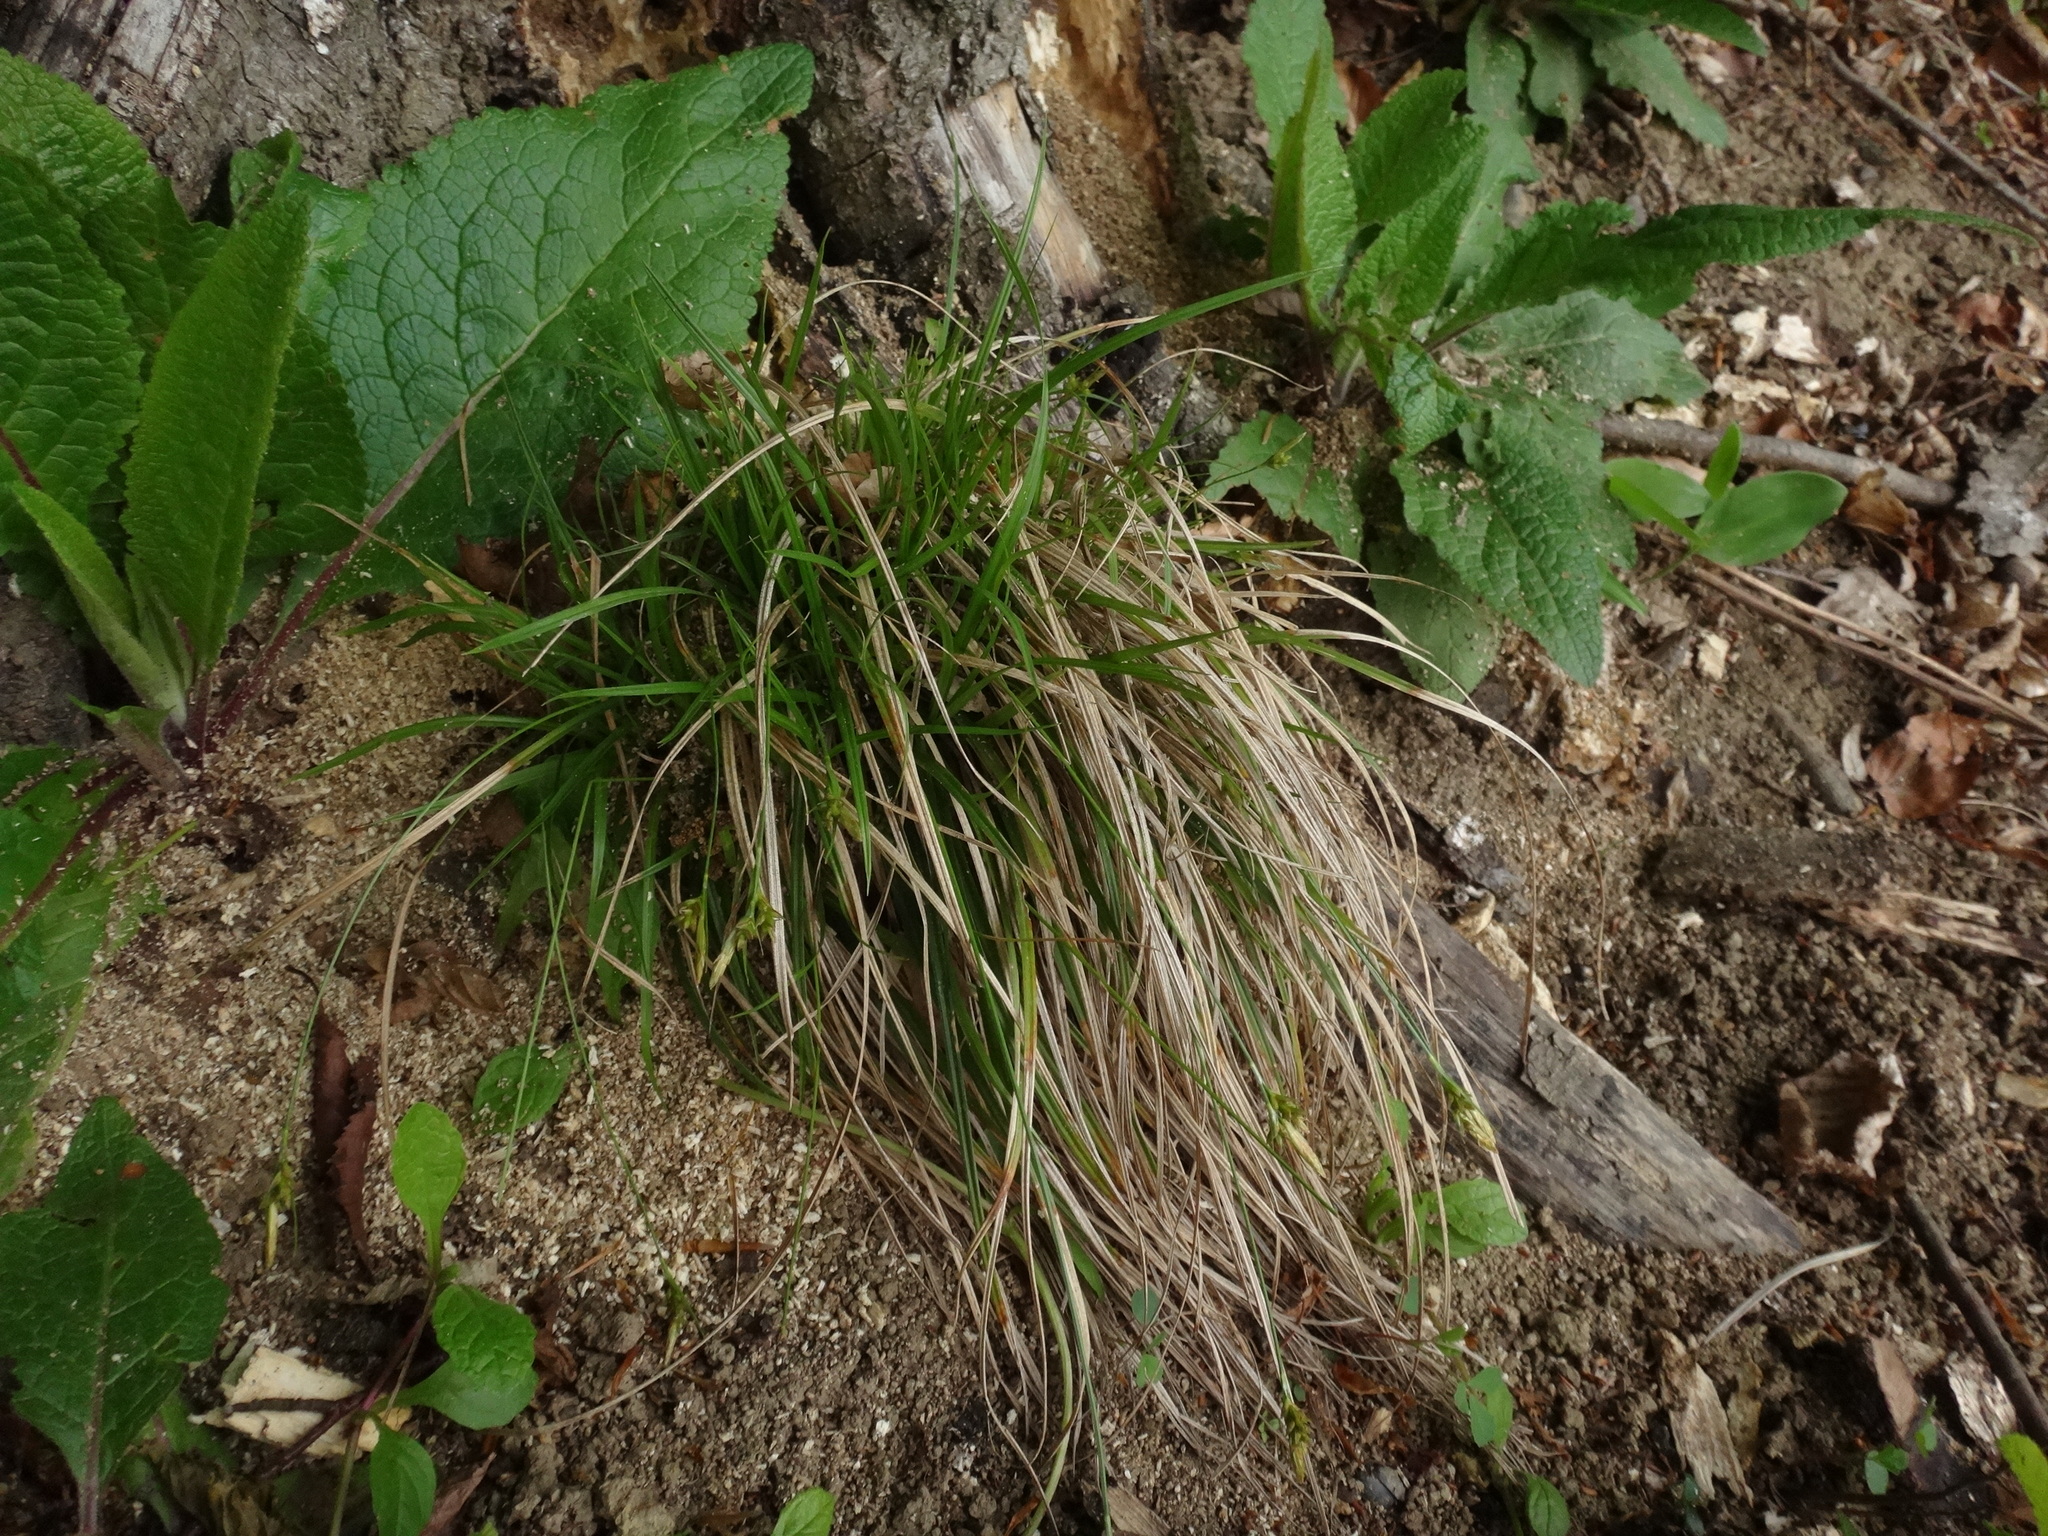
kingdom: Plantae
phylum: Tracheophyta
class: Liliopsida
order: Poales
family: Cyperaceae
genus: Carex
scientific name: Carex depressa
